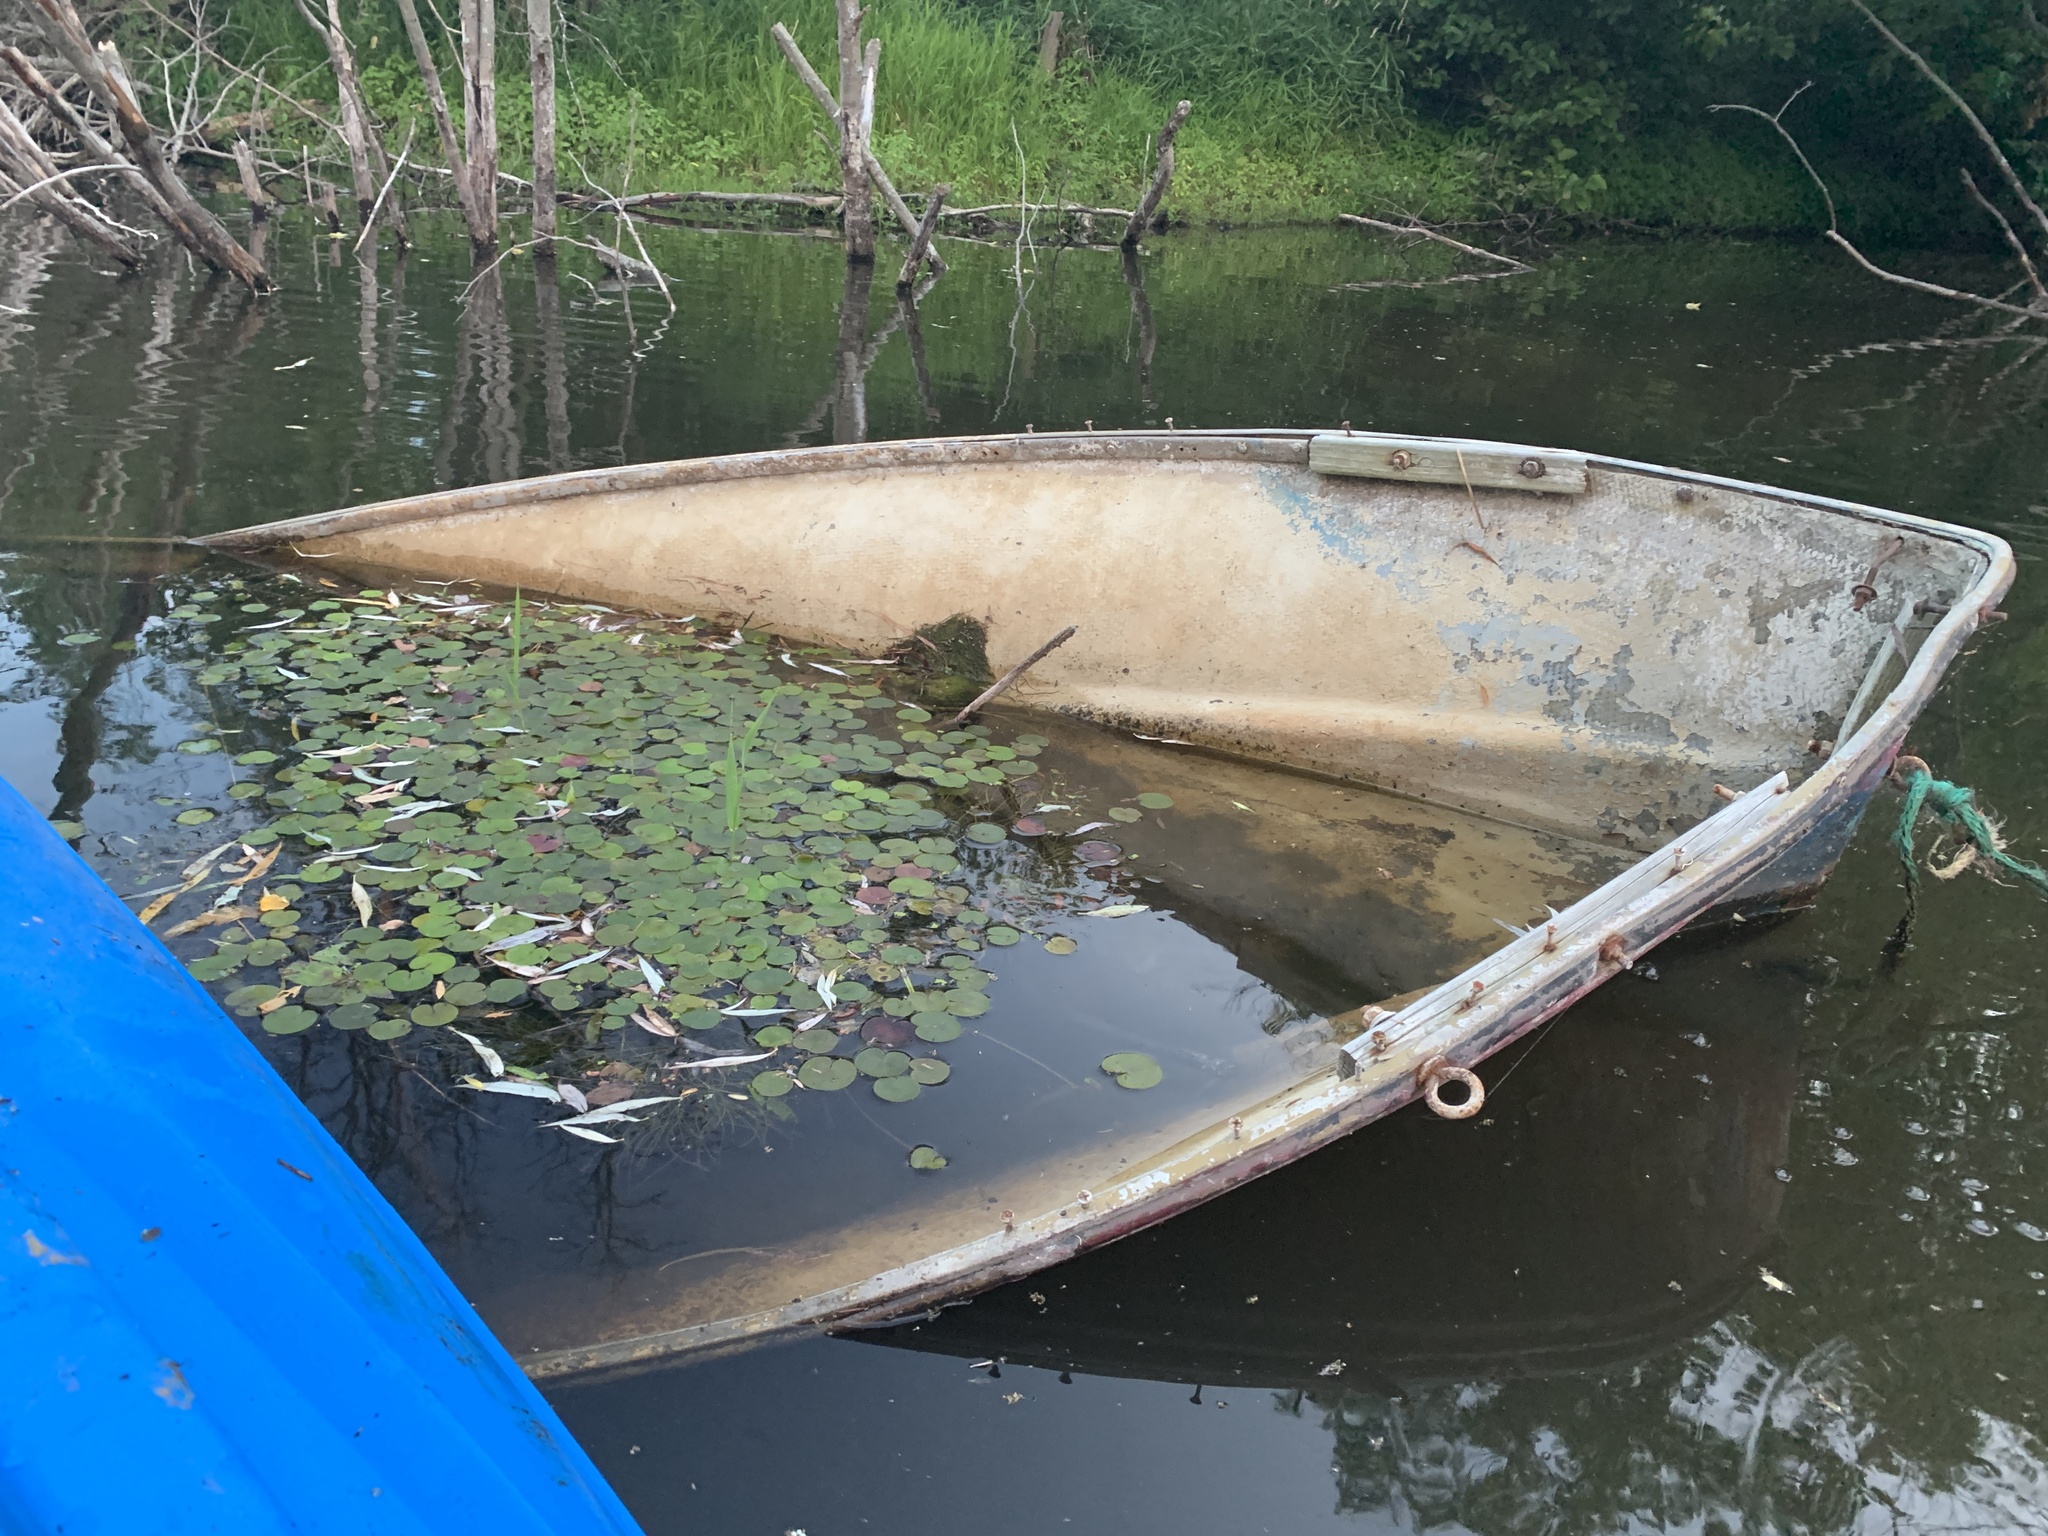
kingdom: Plantae
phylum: Tracheophyta
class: Liliopsida
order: Alismatales
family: Hydrocharitaceae
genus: Hydrocharis
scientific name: Hydrocharis morsus-ranae
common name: Frogbit
